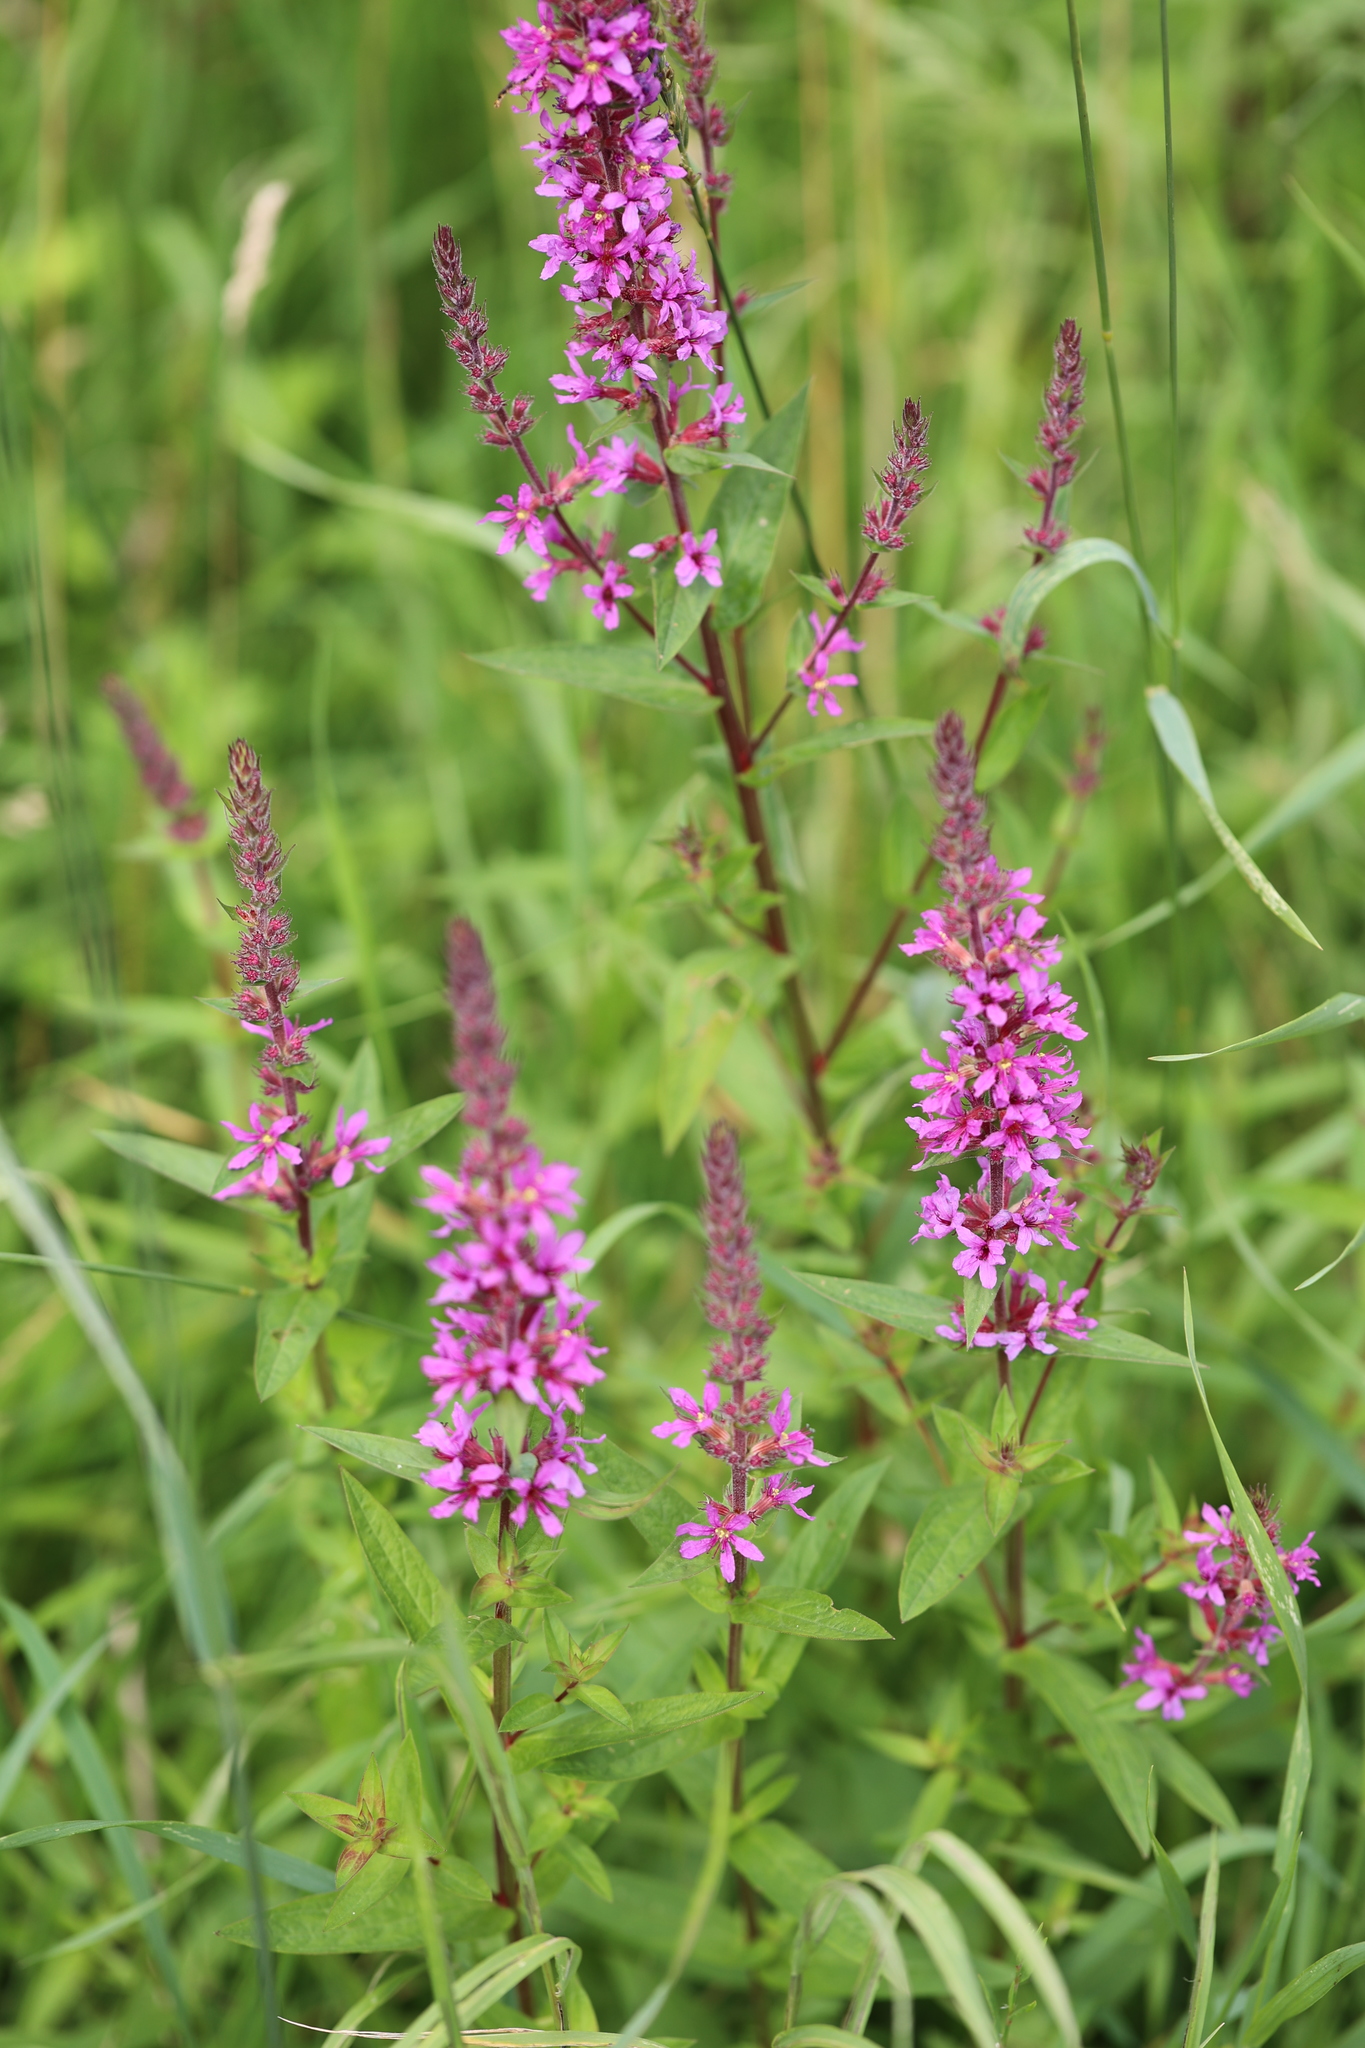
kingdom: Plantae
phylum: Tracheophyta
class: Magnoliopsida
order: Myrtales
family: Lythraceae
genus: Lythrum
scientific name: Lythrum salicaria
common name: Purple loosestrife
